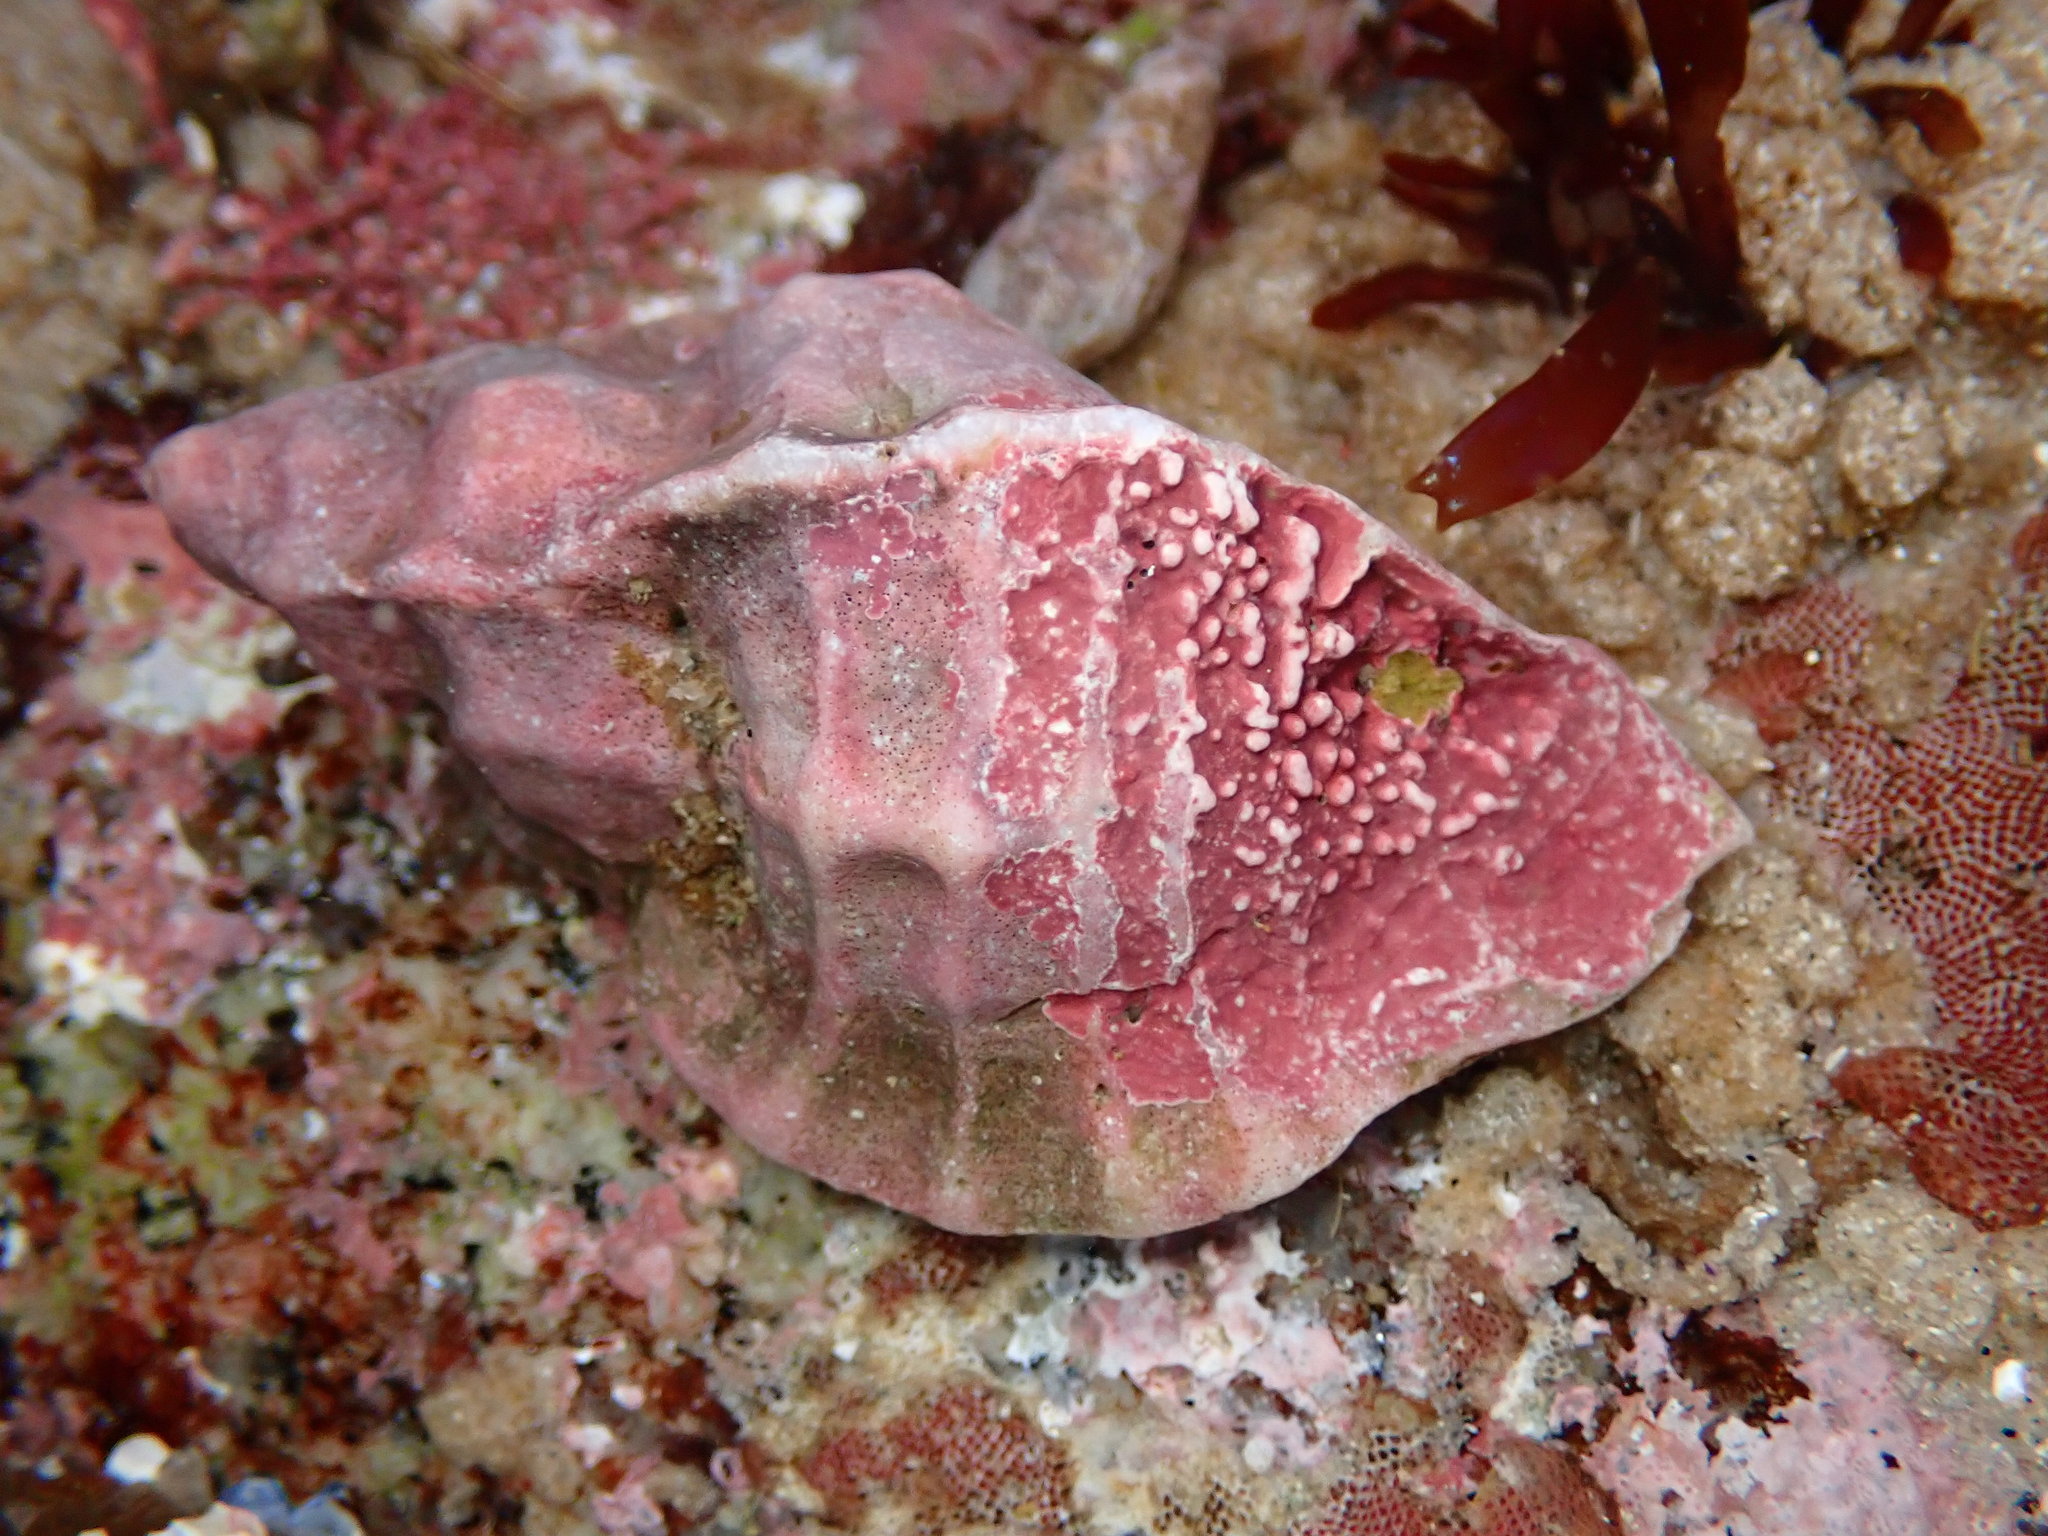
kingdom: Animalia
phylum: Mollusca
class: Gastropoda
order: Neogastropoda
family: Muricidae
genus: Ceratostoma
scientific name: Ceratostoma foliatum
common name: Foliate thorn purpura
